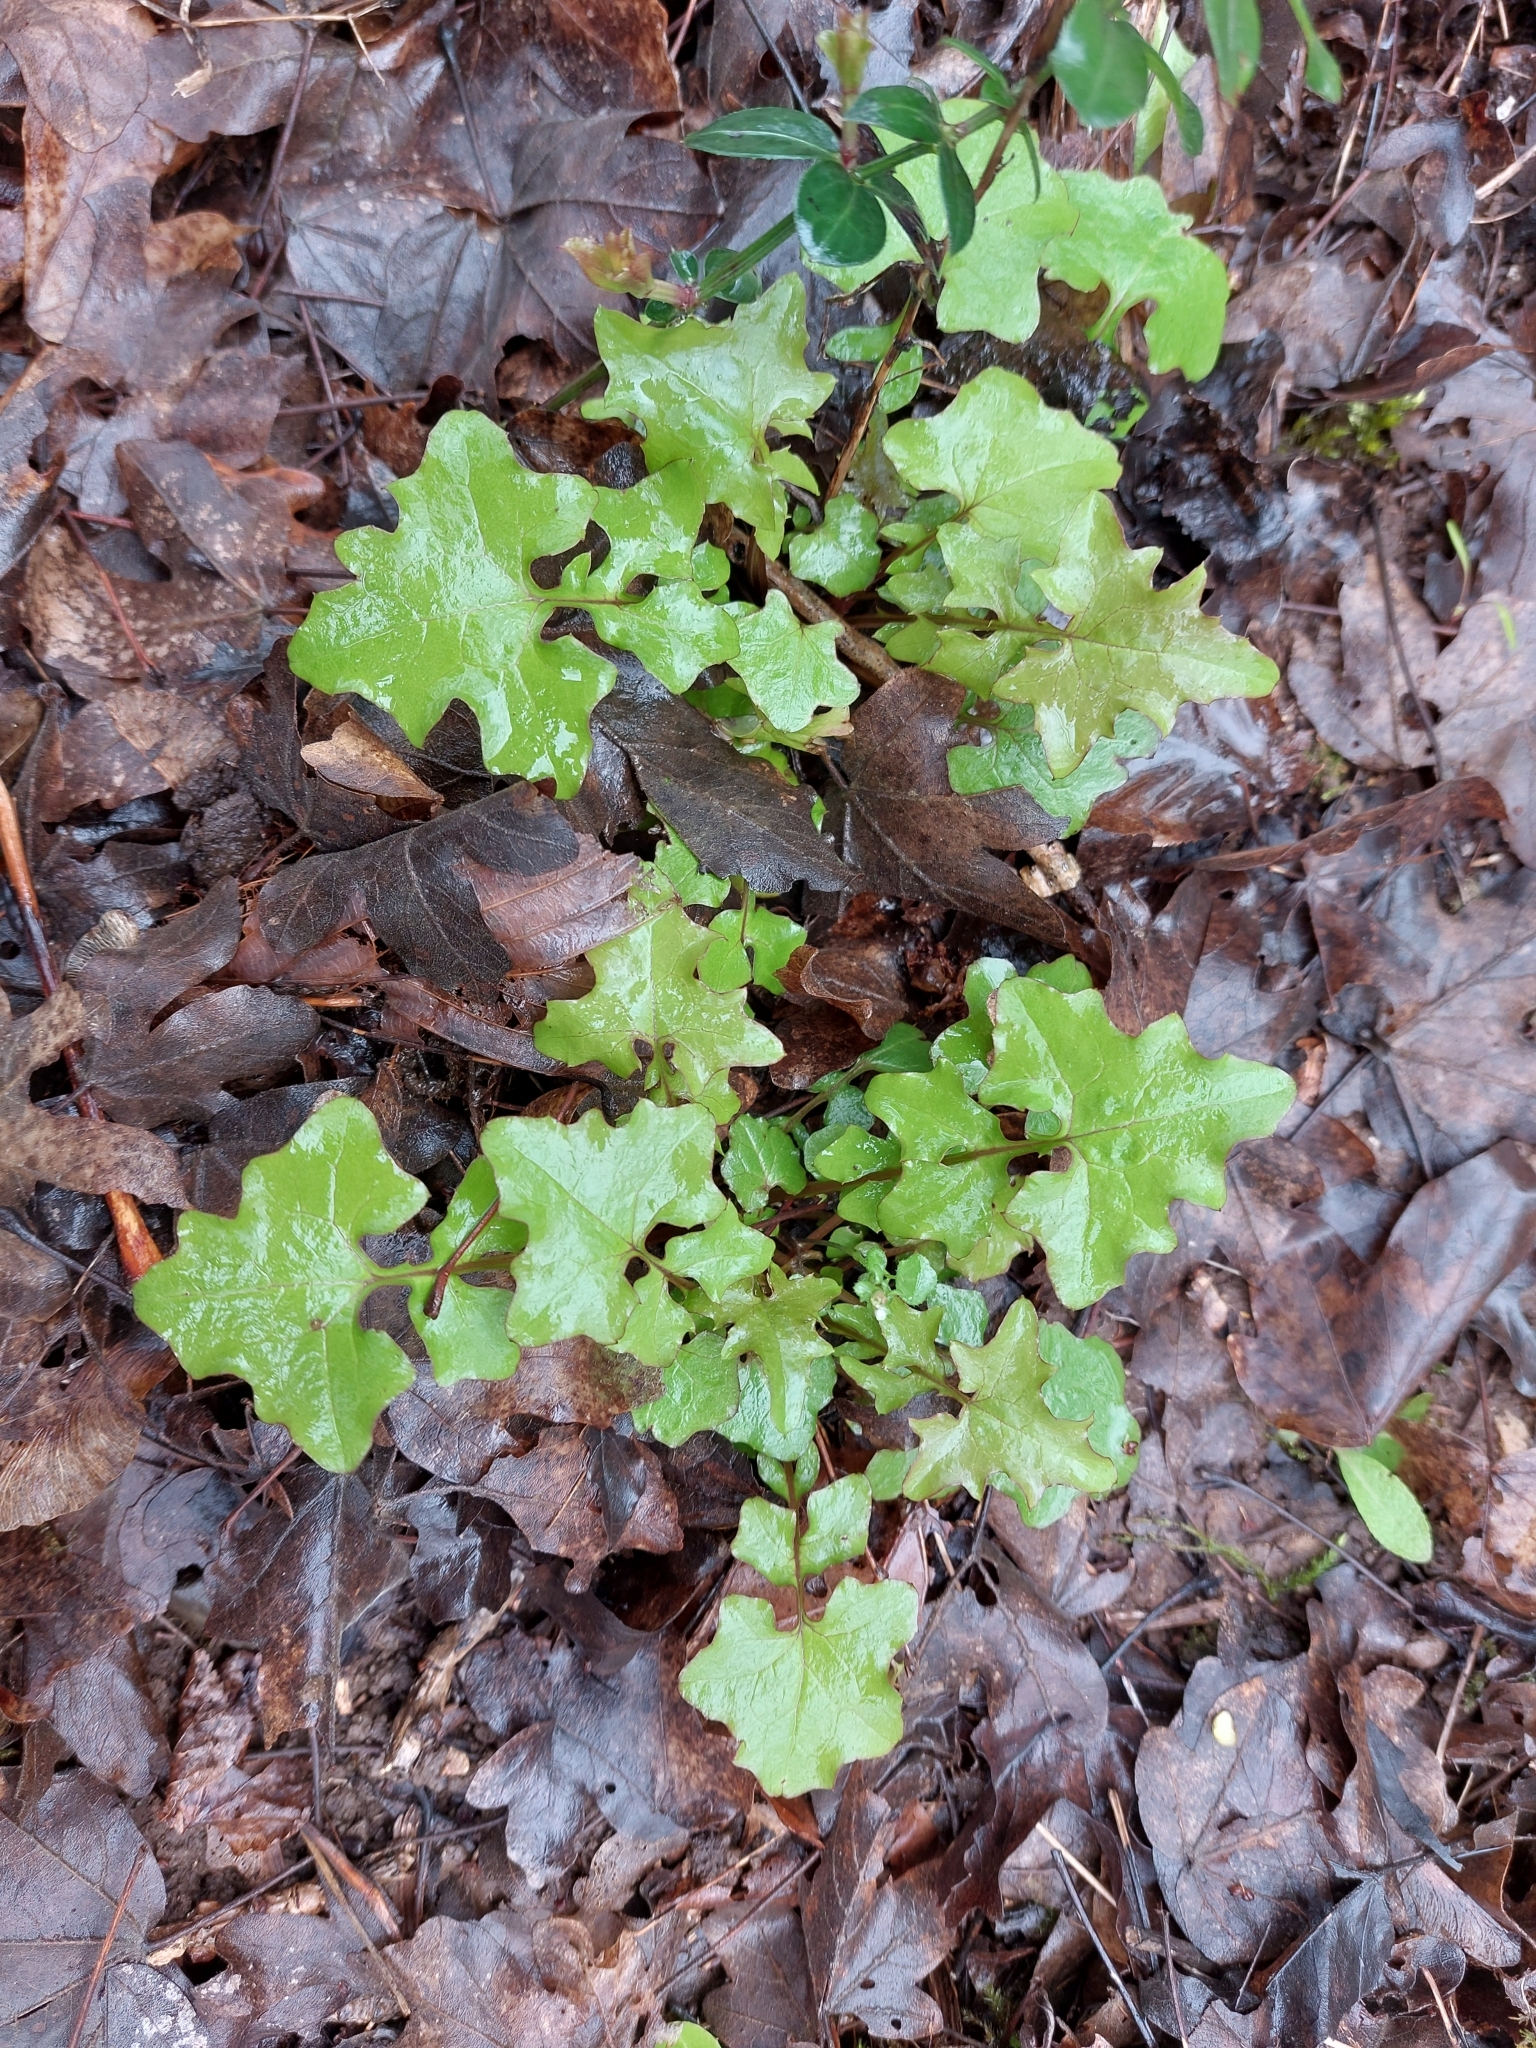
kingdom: Plantae
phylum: Tracheophyta
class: Magnoliopsida
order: Asterales
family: Asteraceae
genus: Mycelis
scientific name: Mycelis muralis
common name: Wall lettuce
